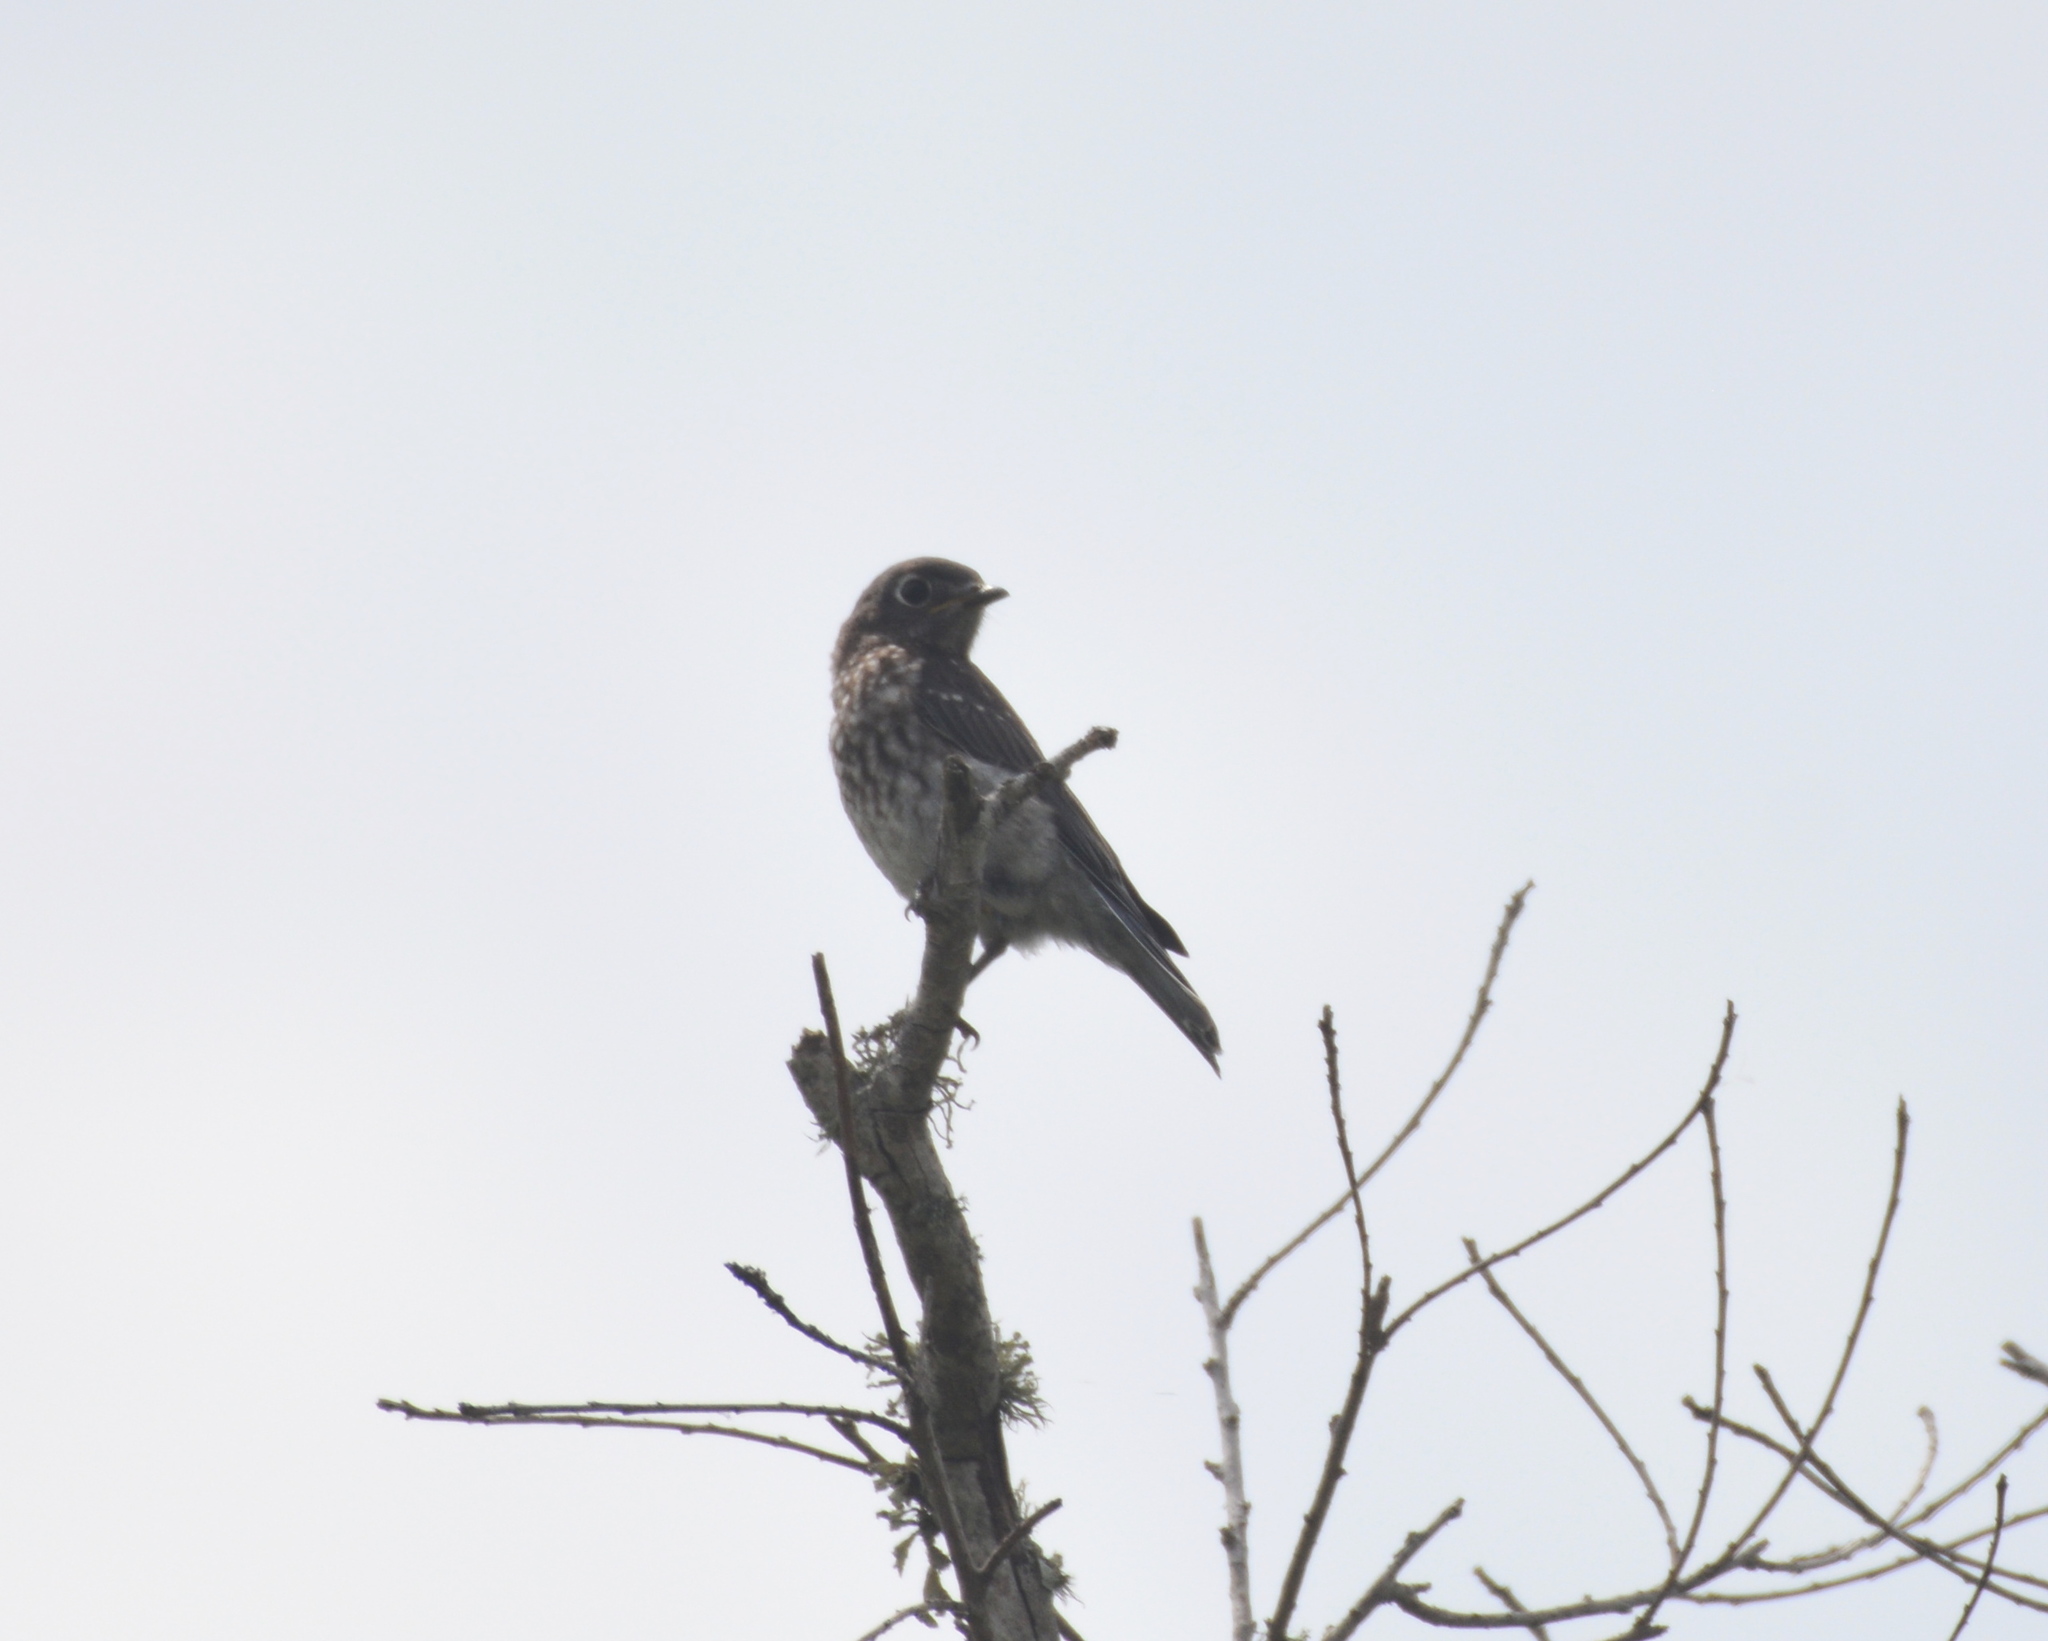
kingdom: Animalia
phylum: Chordata
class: Aves
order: Passeriformes
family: Turdidae
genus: Sialia
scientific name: Sialia sialis
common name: Eastern bluebird
